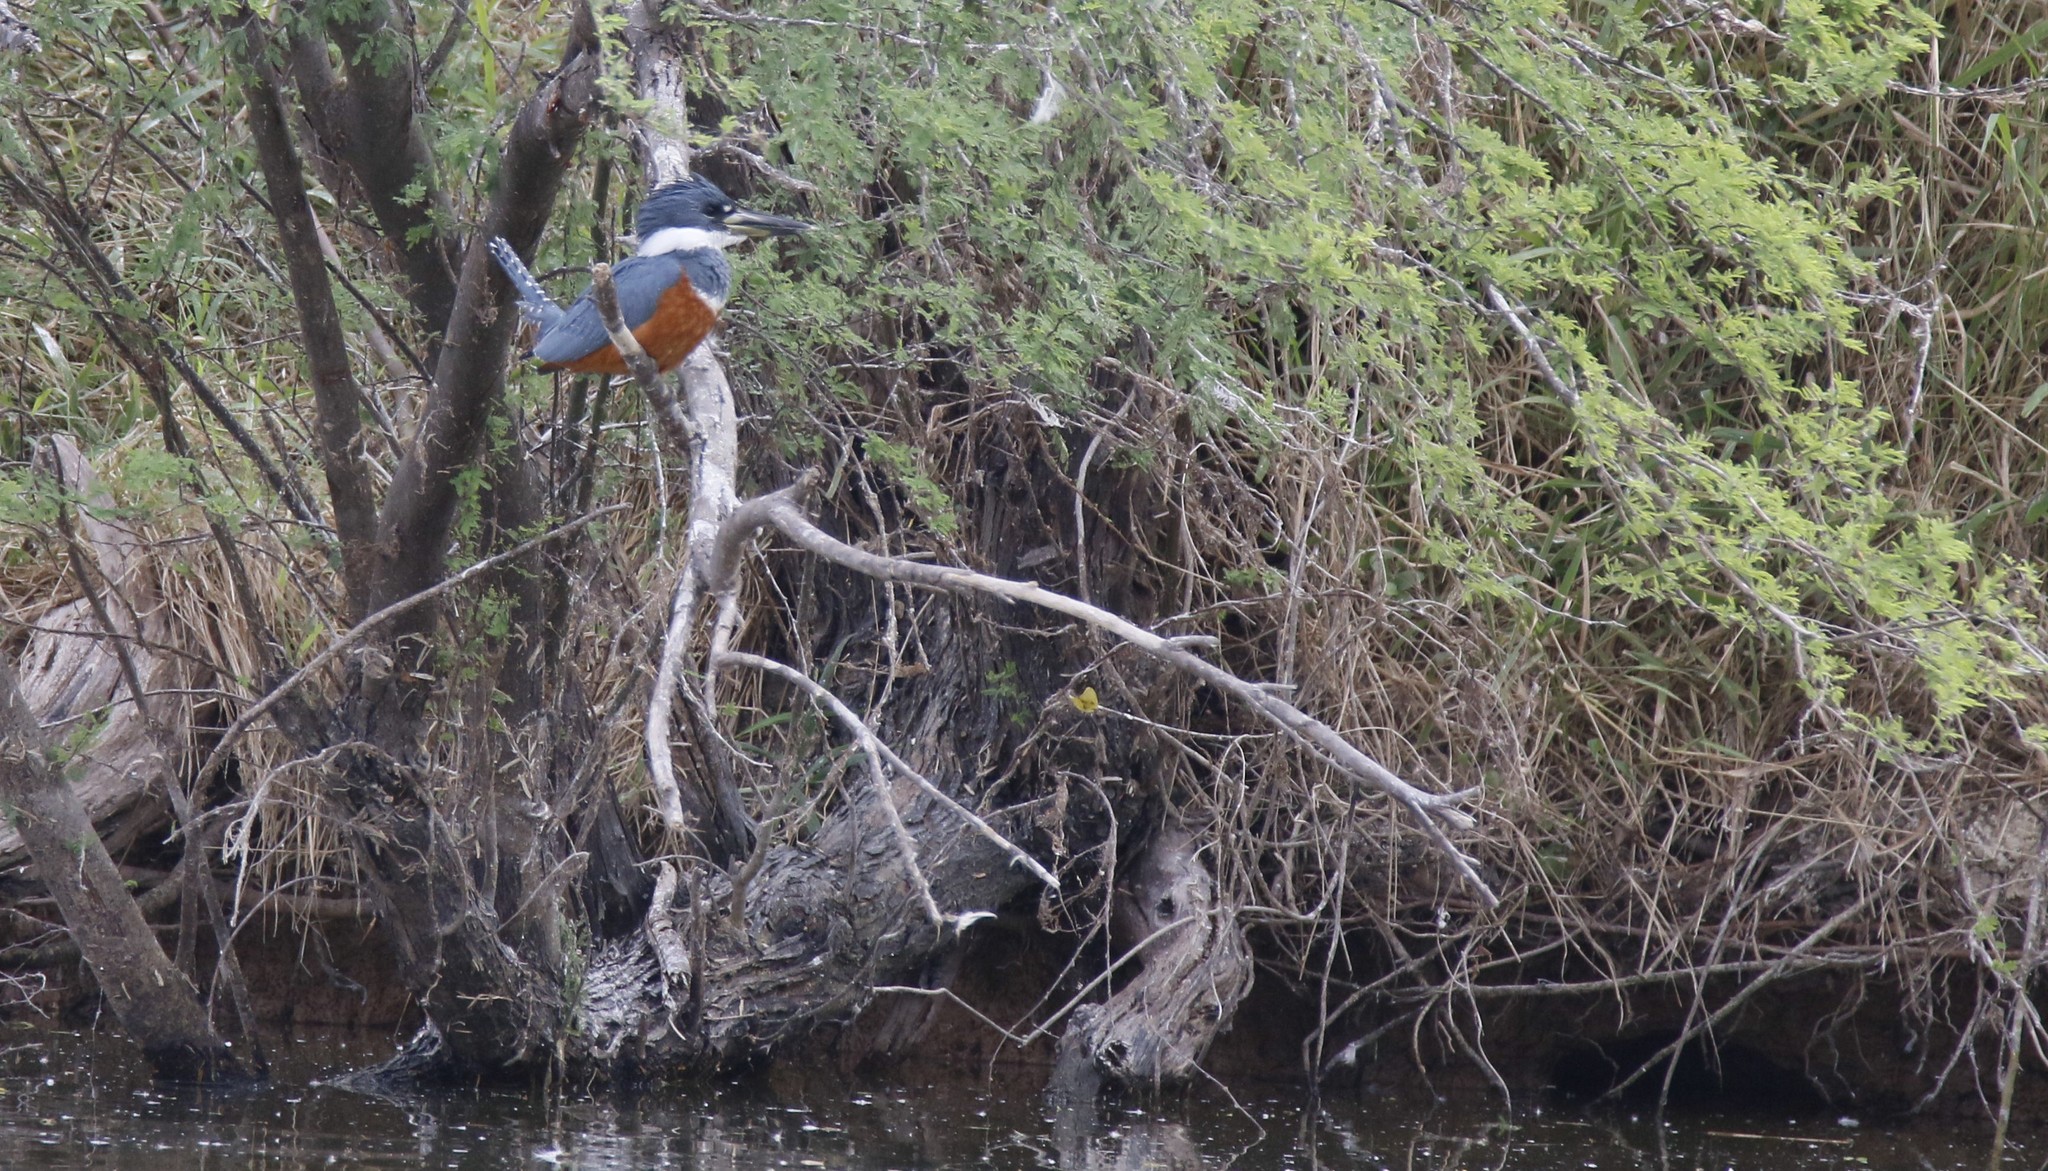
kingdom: Animalia
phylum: Chordata
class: Aves
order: Coraciiformes
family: Alcedinidae
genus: Megaceryle
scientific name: Megaceryle torquata
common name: Ringed kingfisher
